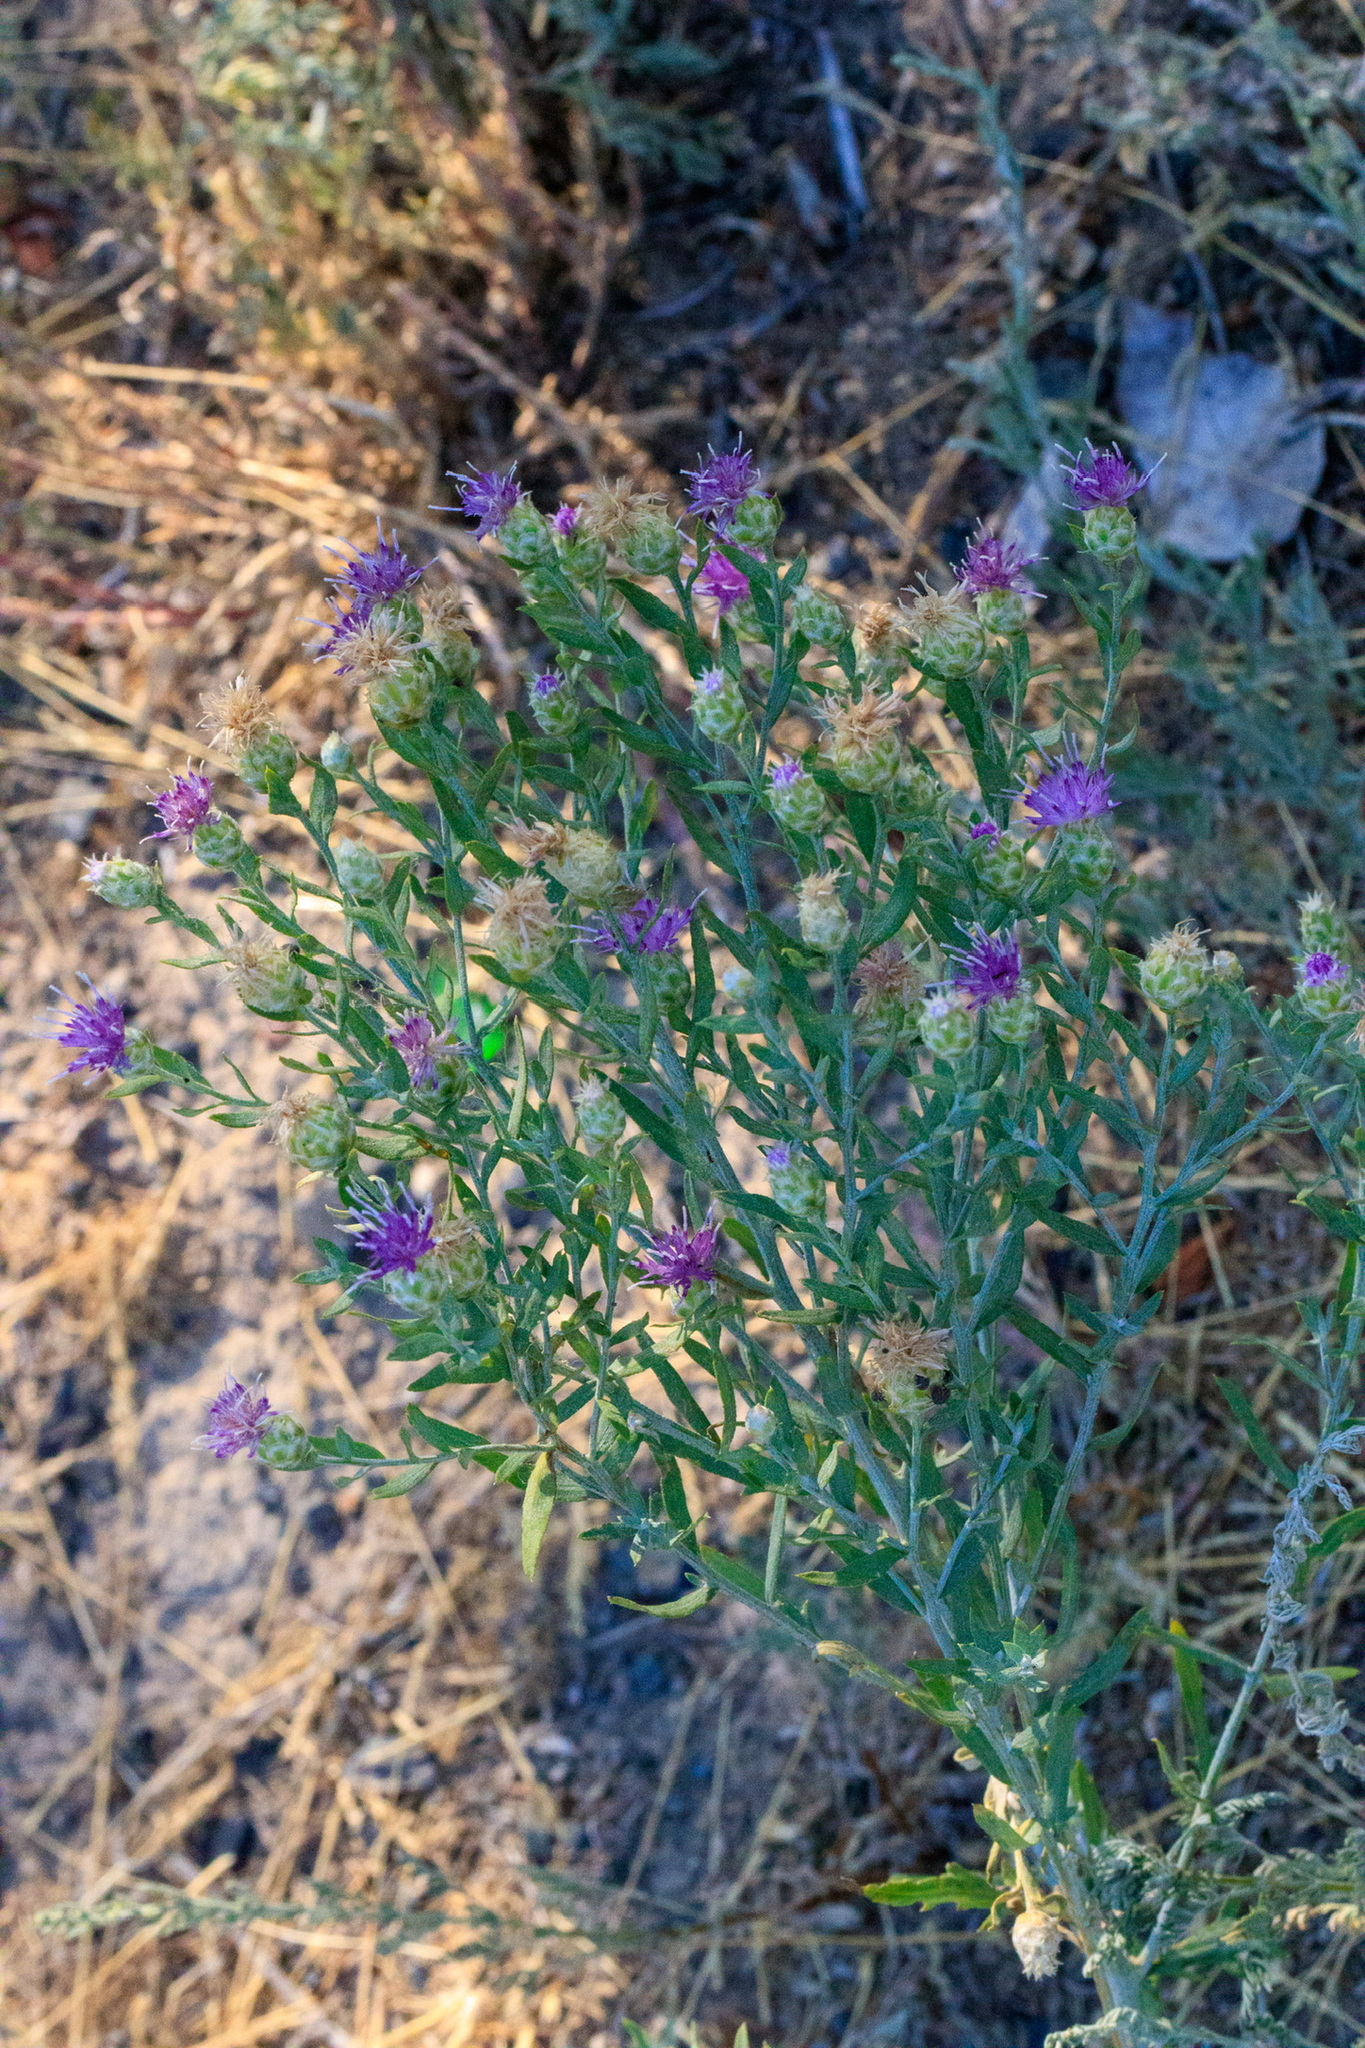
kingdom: Plantae
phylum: Tracheophyta
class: Magnoliopsida
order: Asterales
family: Asteraceae
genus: Leuzea
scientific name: Leuzea repens
